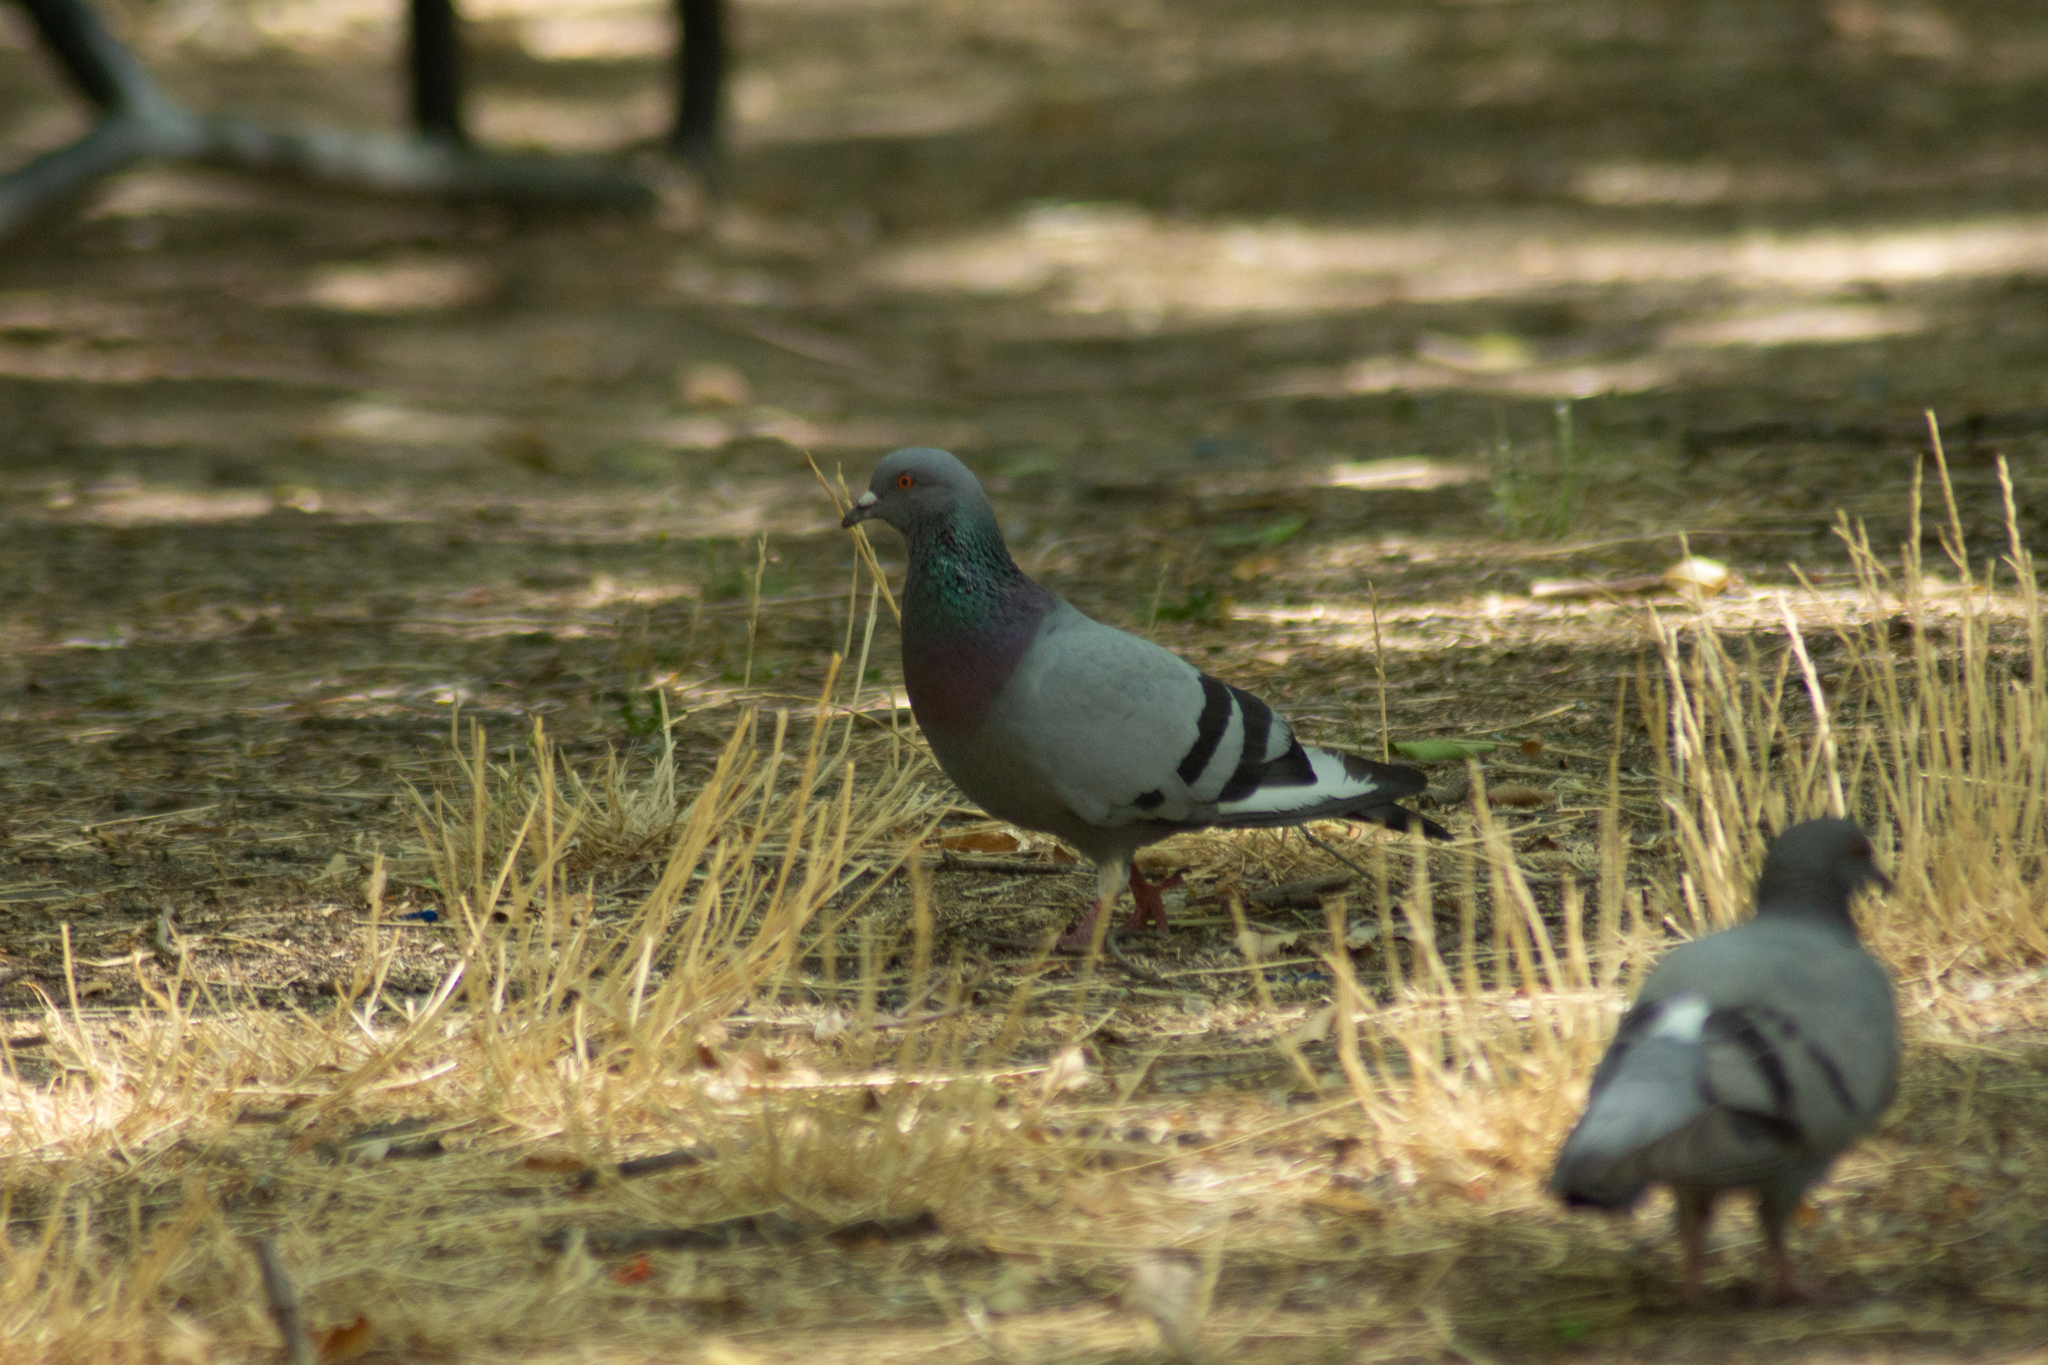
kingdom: Animalia
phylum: Chordata
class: Aves
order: Columbiformes
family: Columbidae
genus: Columba
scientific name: Columba livia
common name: Rock pigeon
